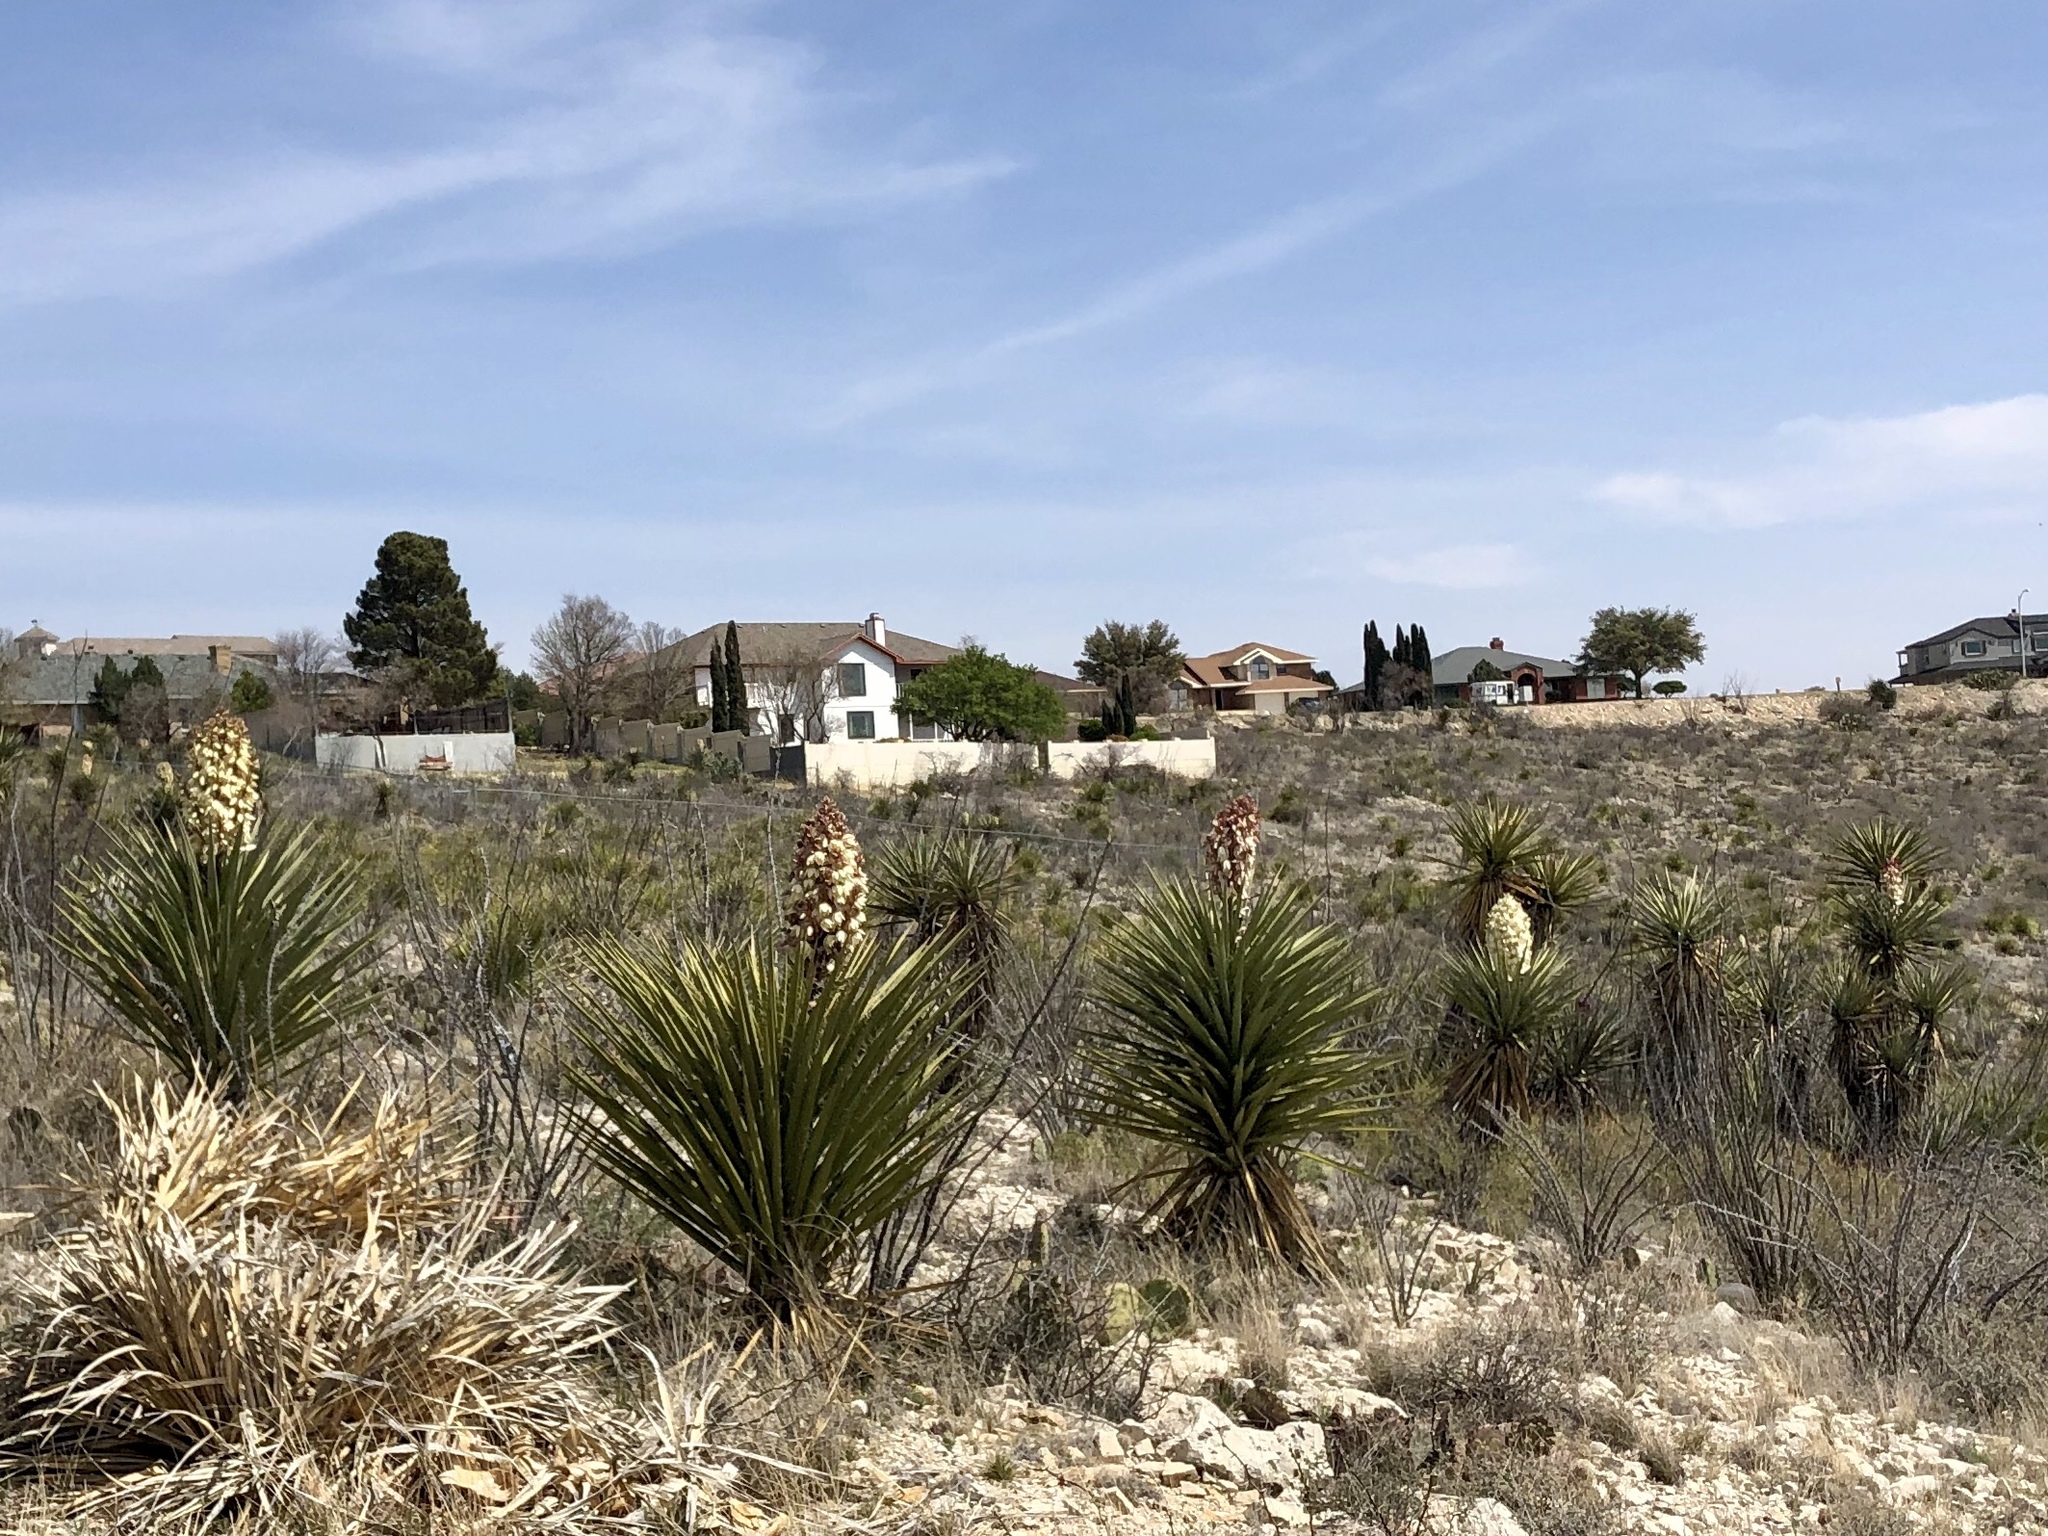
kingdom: Plantae
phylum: Tracheophyta
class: Liliopsida
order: Asparagales
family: Asparagaceae
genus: Yucca
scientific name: Yucca treculiana
